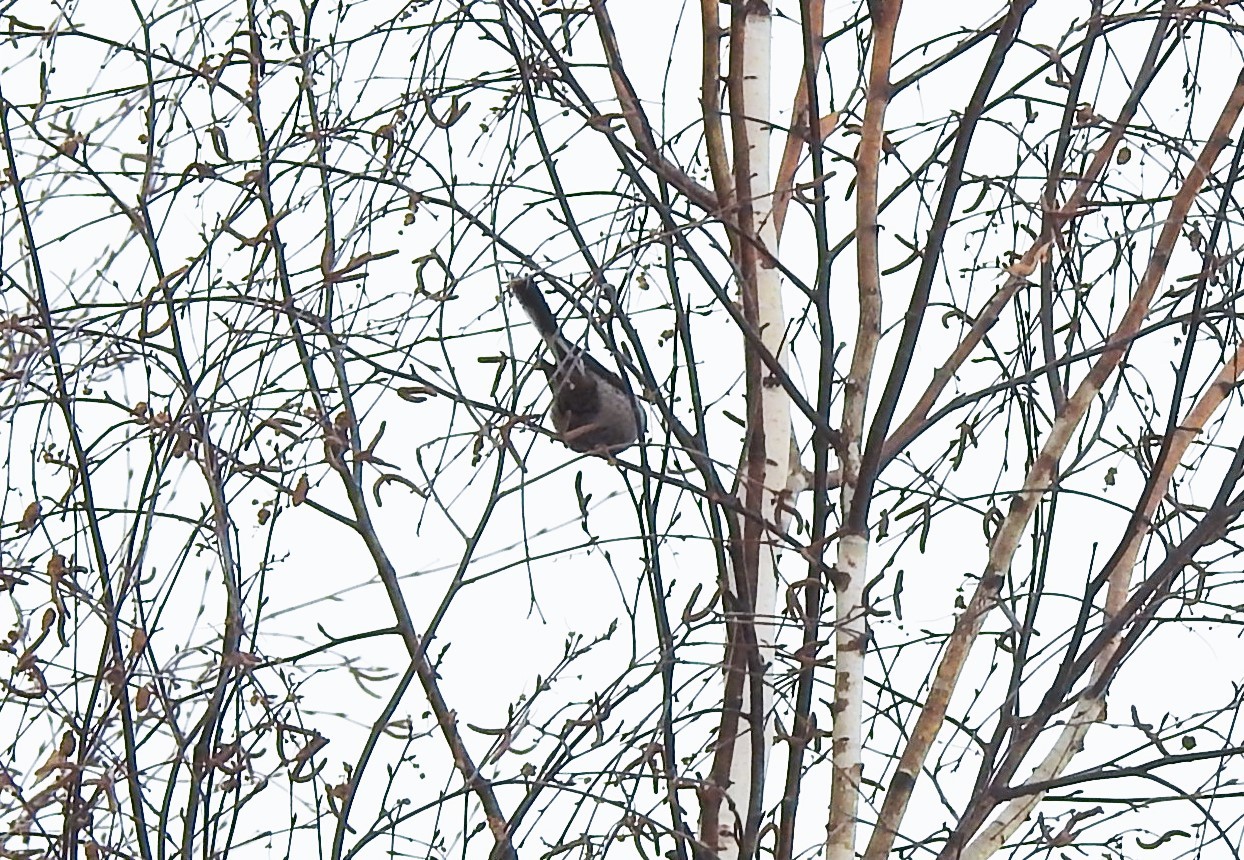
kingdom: Animalia
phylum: Chordata
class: Aves
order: Passeriformes
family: Aegithalidae
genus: Aegithalos
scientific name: Aegithalos caudatus
